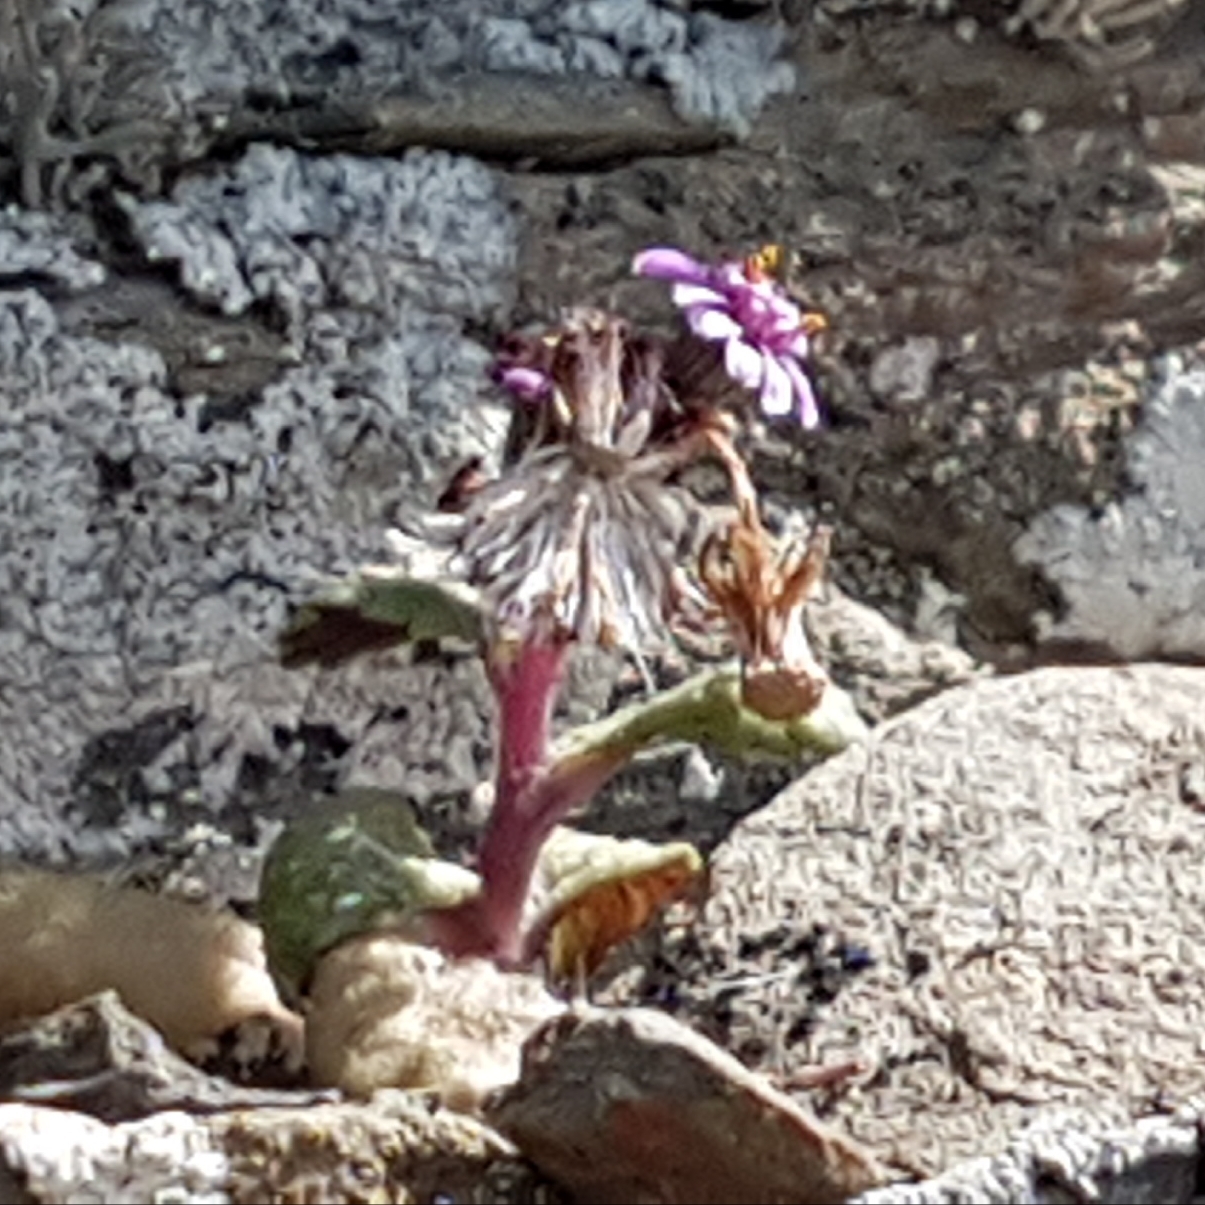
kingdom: Plantae
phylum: Tracheophyta
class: Magnoliopsida
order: Asterales
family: Asteraceae
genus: Senecio
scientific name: Senecio varicosus
